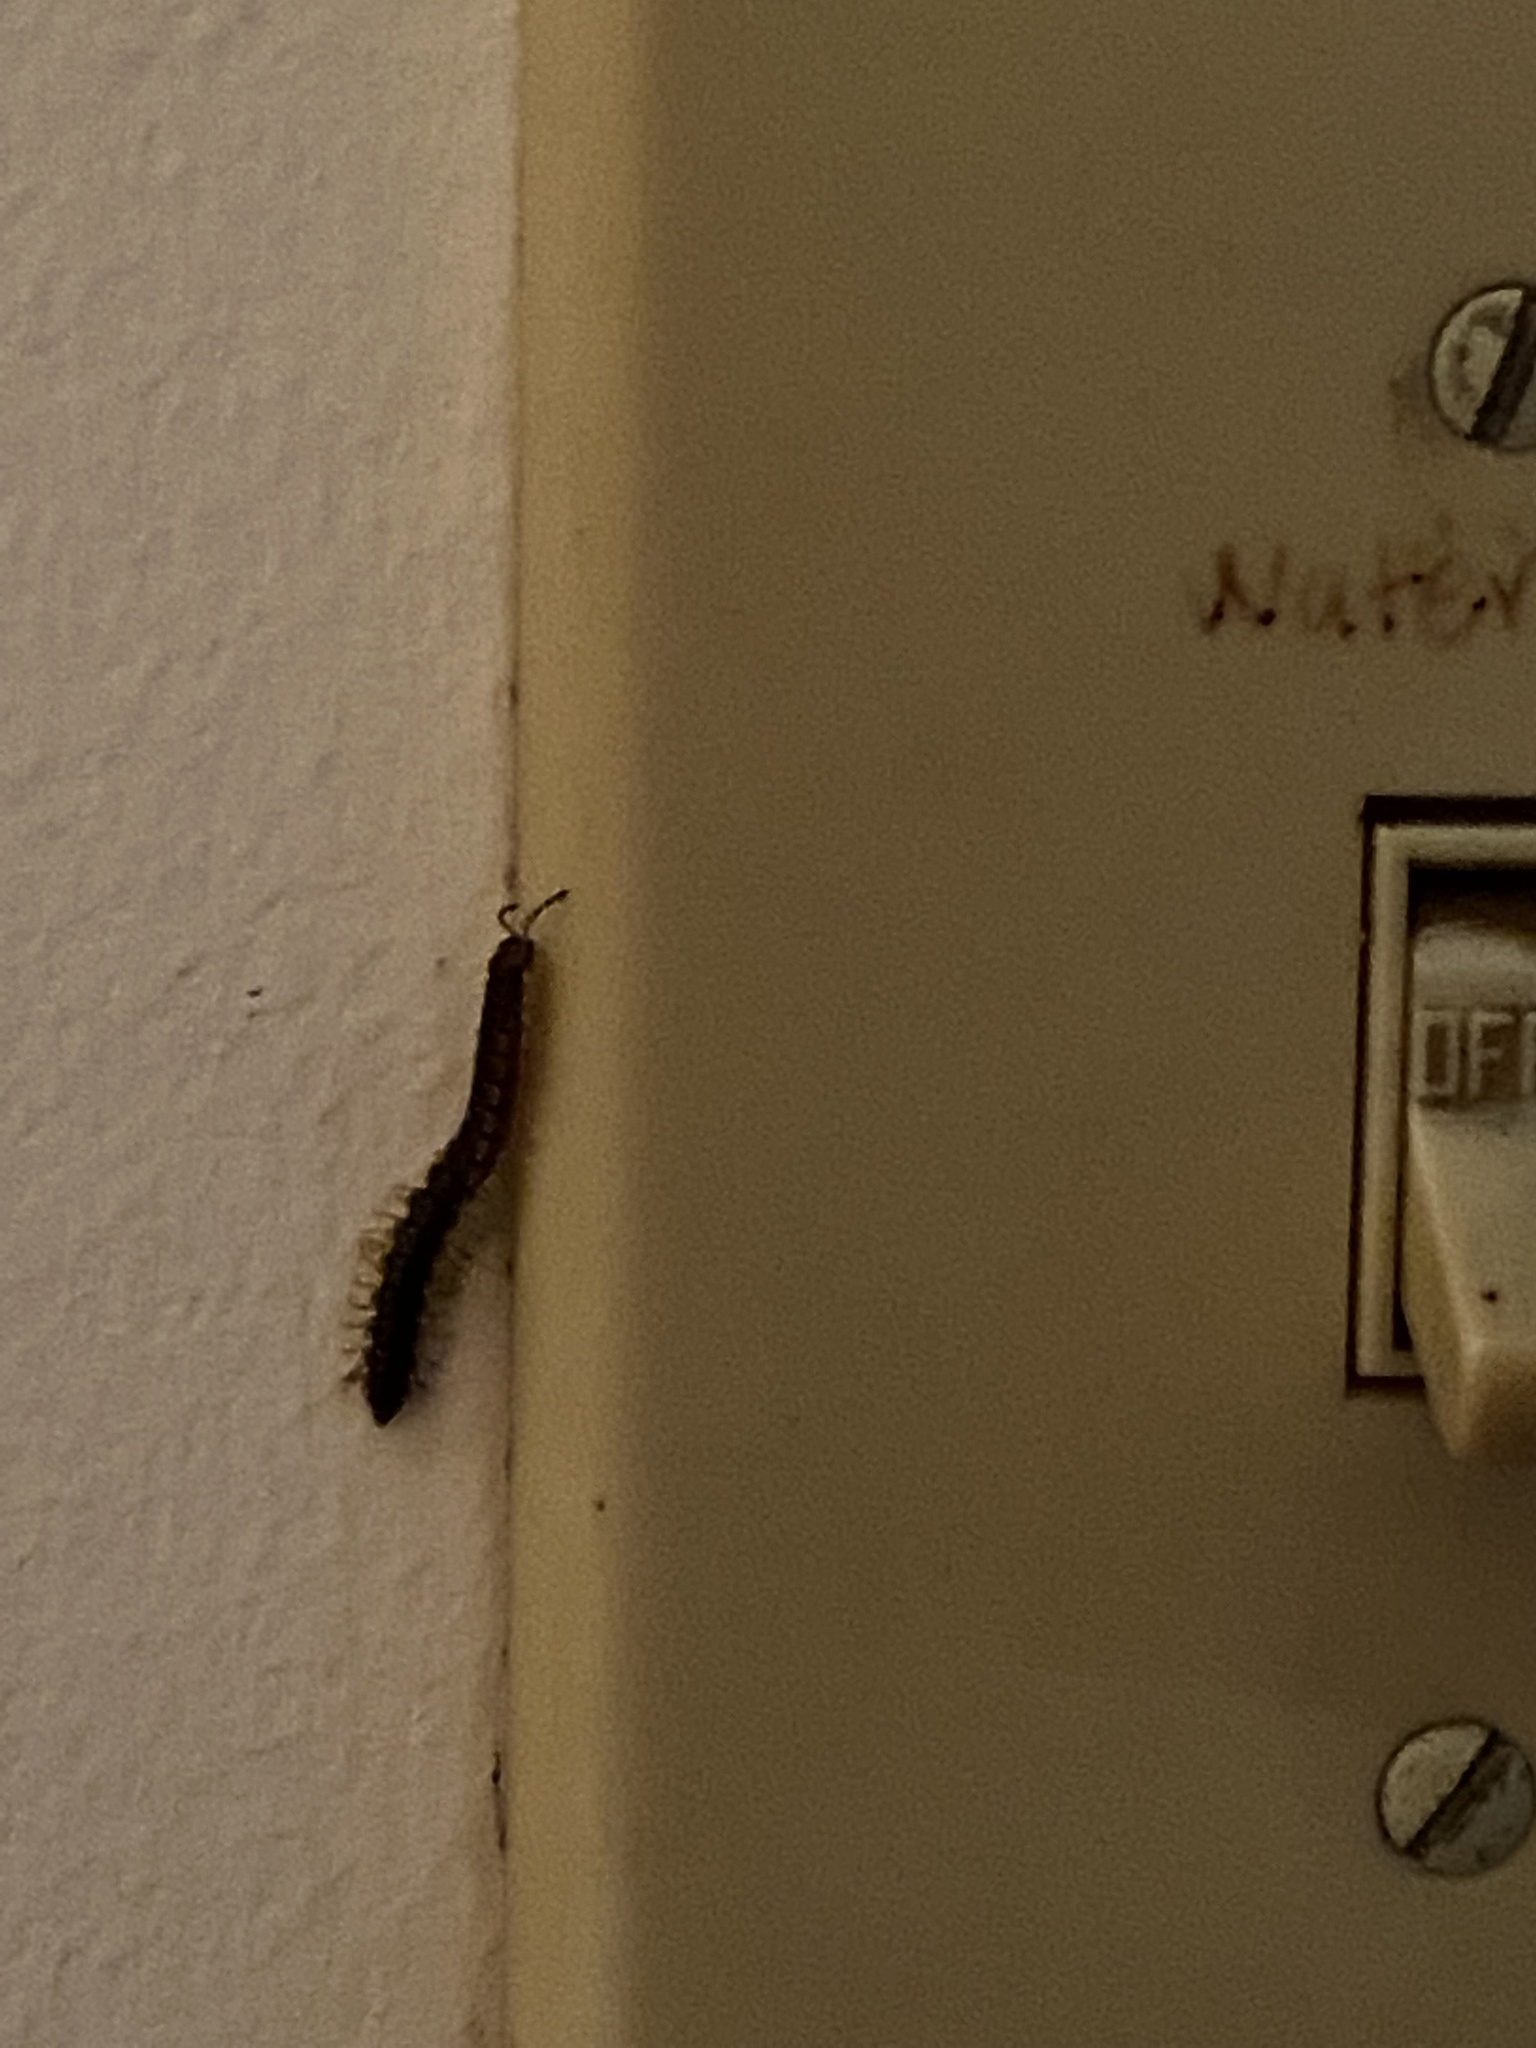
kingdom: Animalia
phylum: Arthropoda
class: Diplopoda
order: Polydesmida
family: Paradoxosomatidae
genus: Oxidus
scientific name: Oxidus gracilis
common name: Greenhouse millipede
